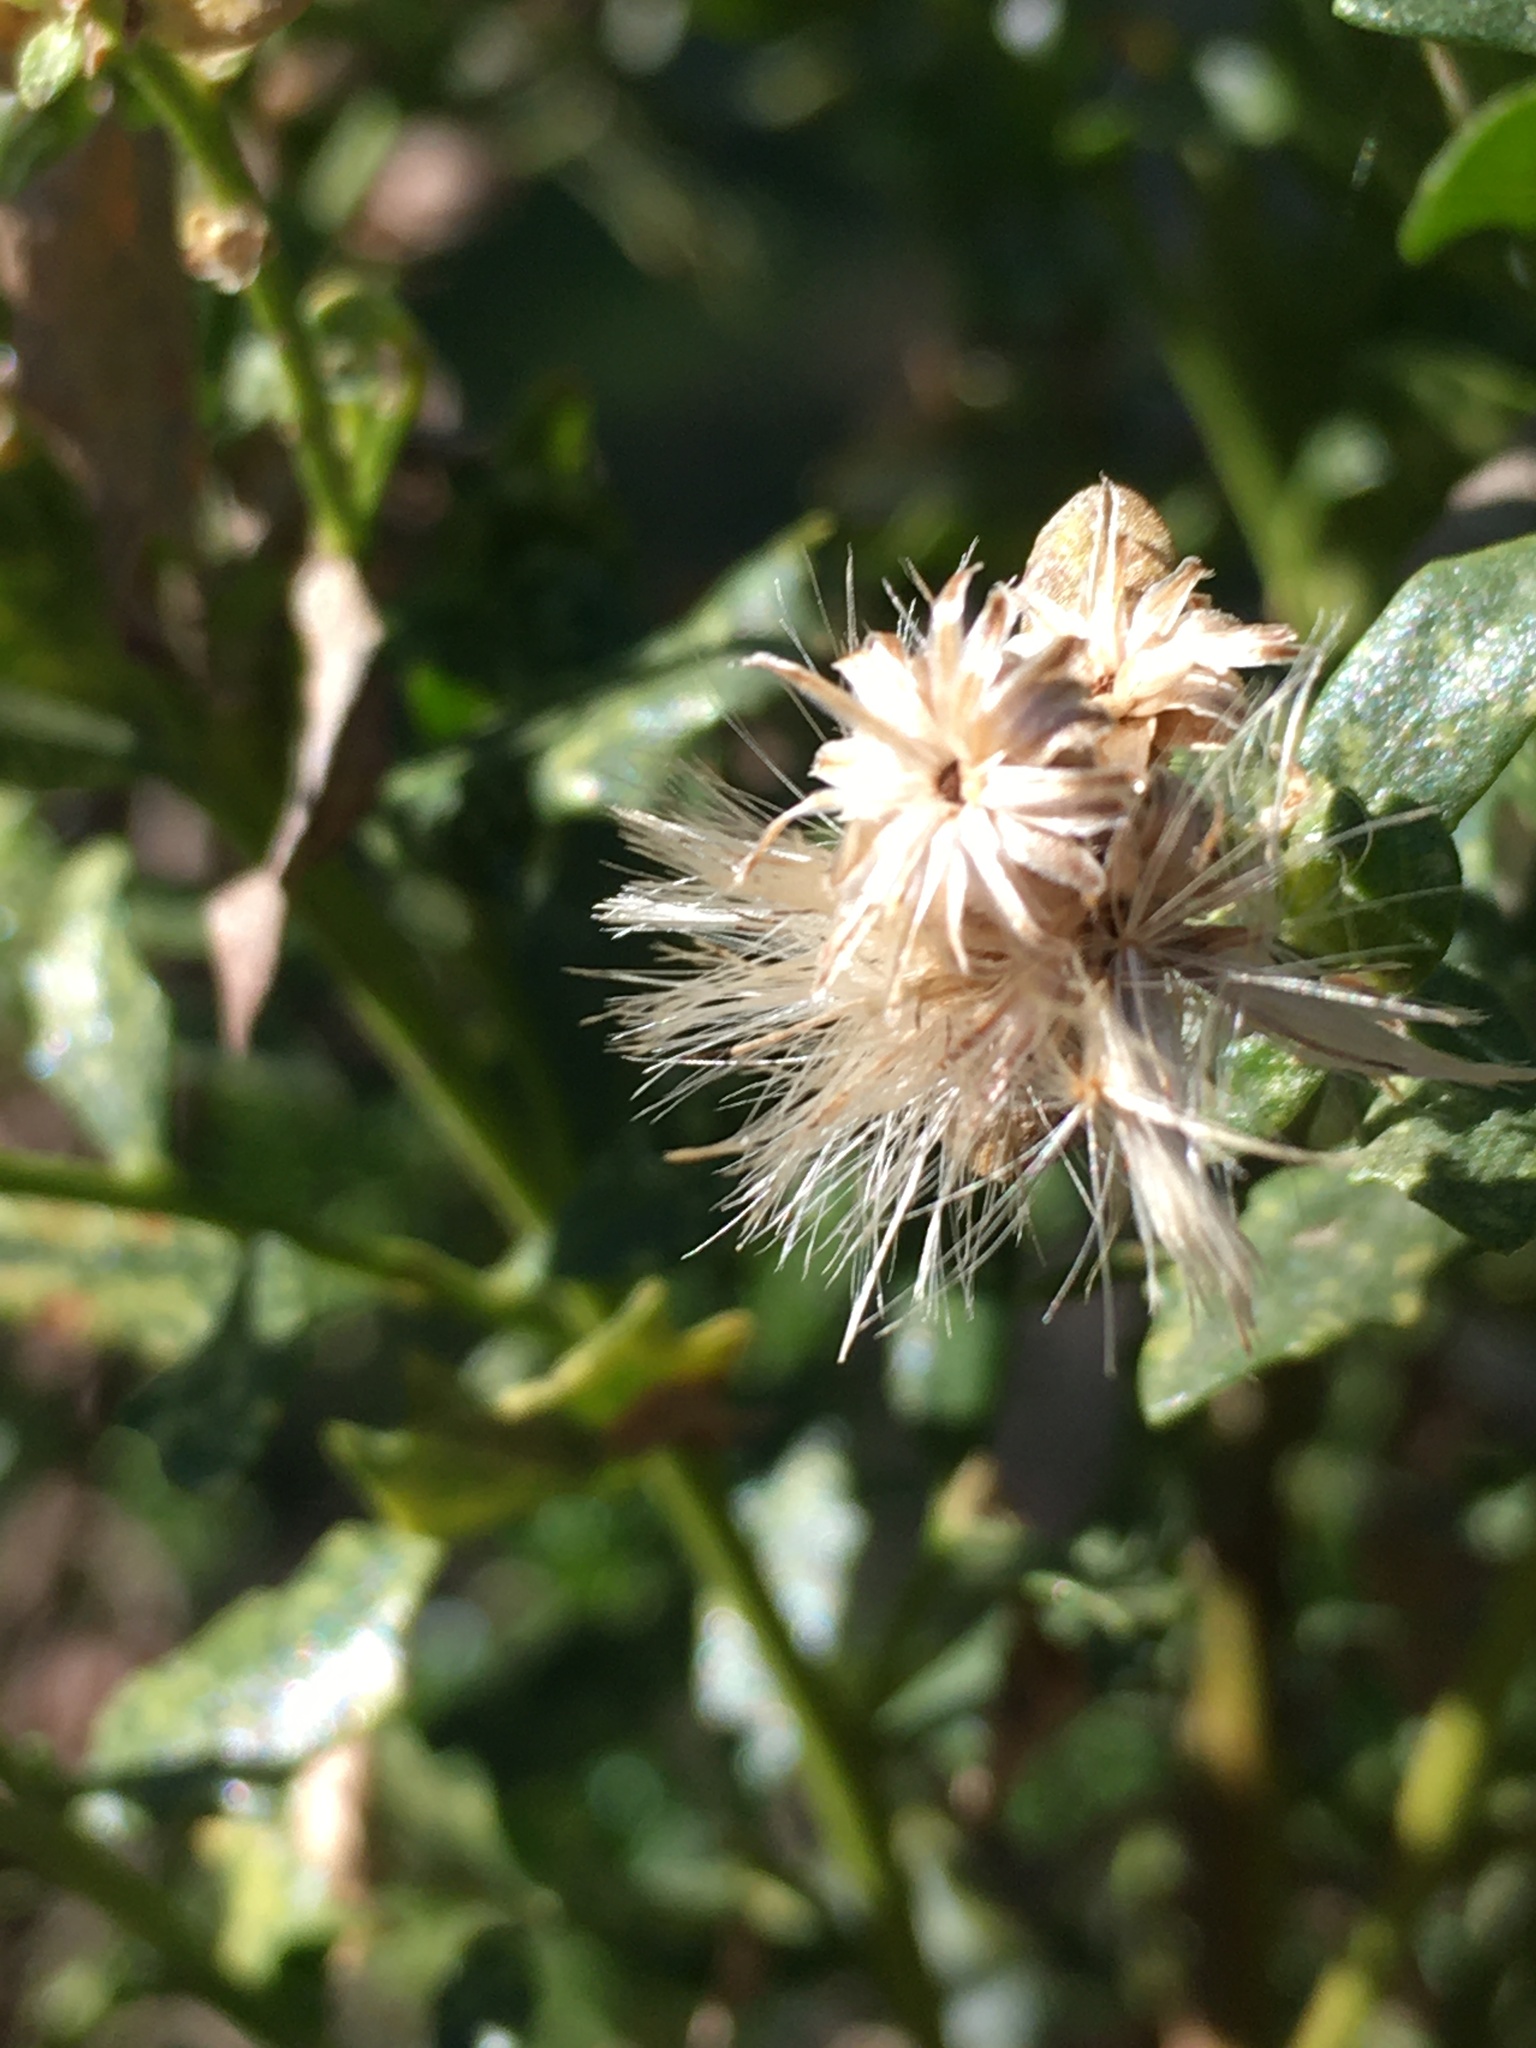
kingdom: Plantae
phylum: Tracheophyta
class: Magnoliopsida
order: Asterales
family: Asteraceae
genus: Baccharis
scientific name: Baccharis pilularis
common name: Coyotebrush
